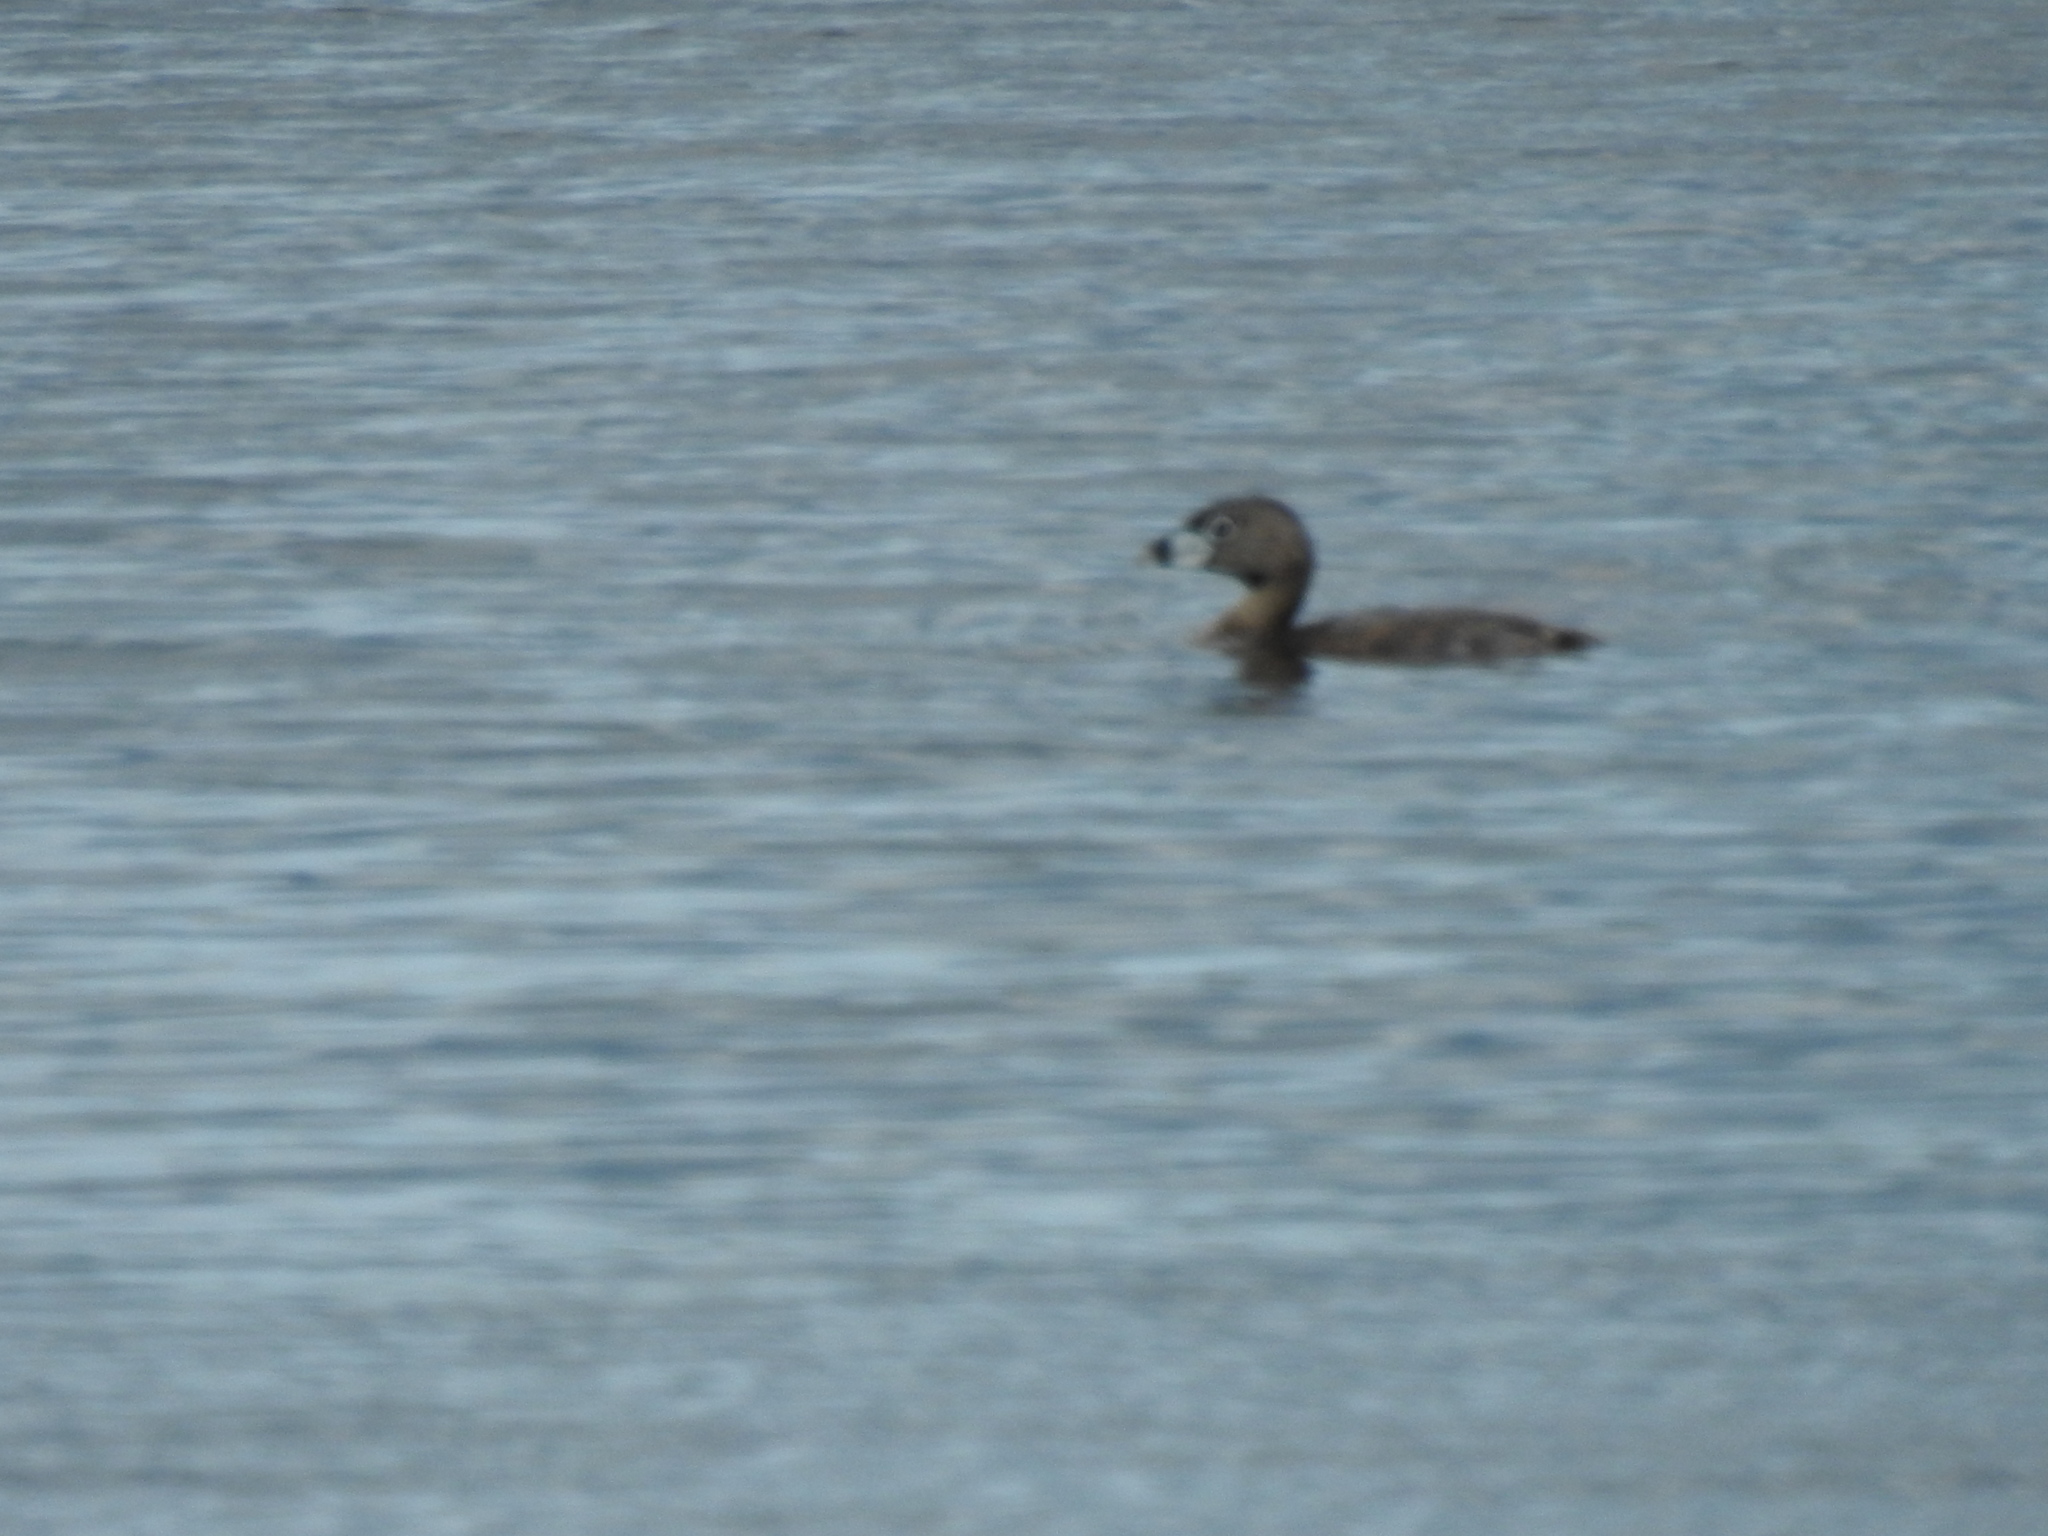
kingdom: Animalia
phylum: Chordata
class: Aves
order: Podicipediformes
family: Podicipedidae
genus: Podilymbus
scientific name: Podilymbus podiceps
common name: Pied-billed grebe
